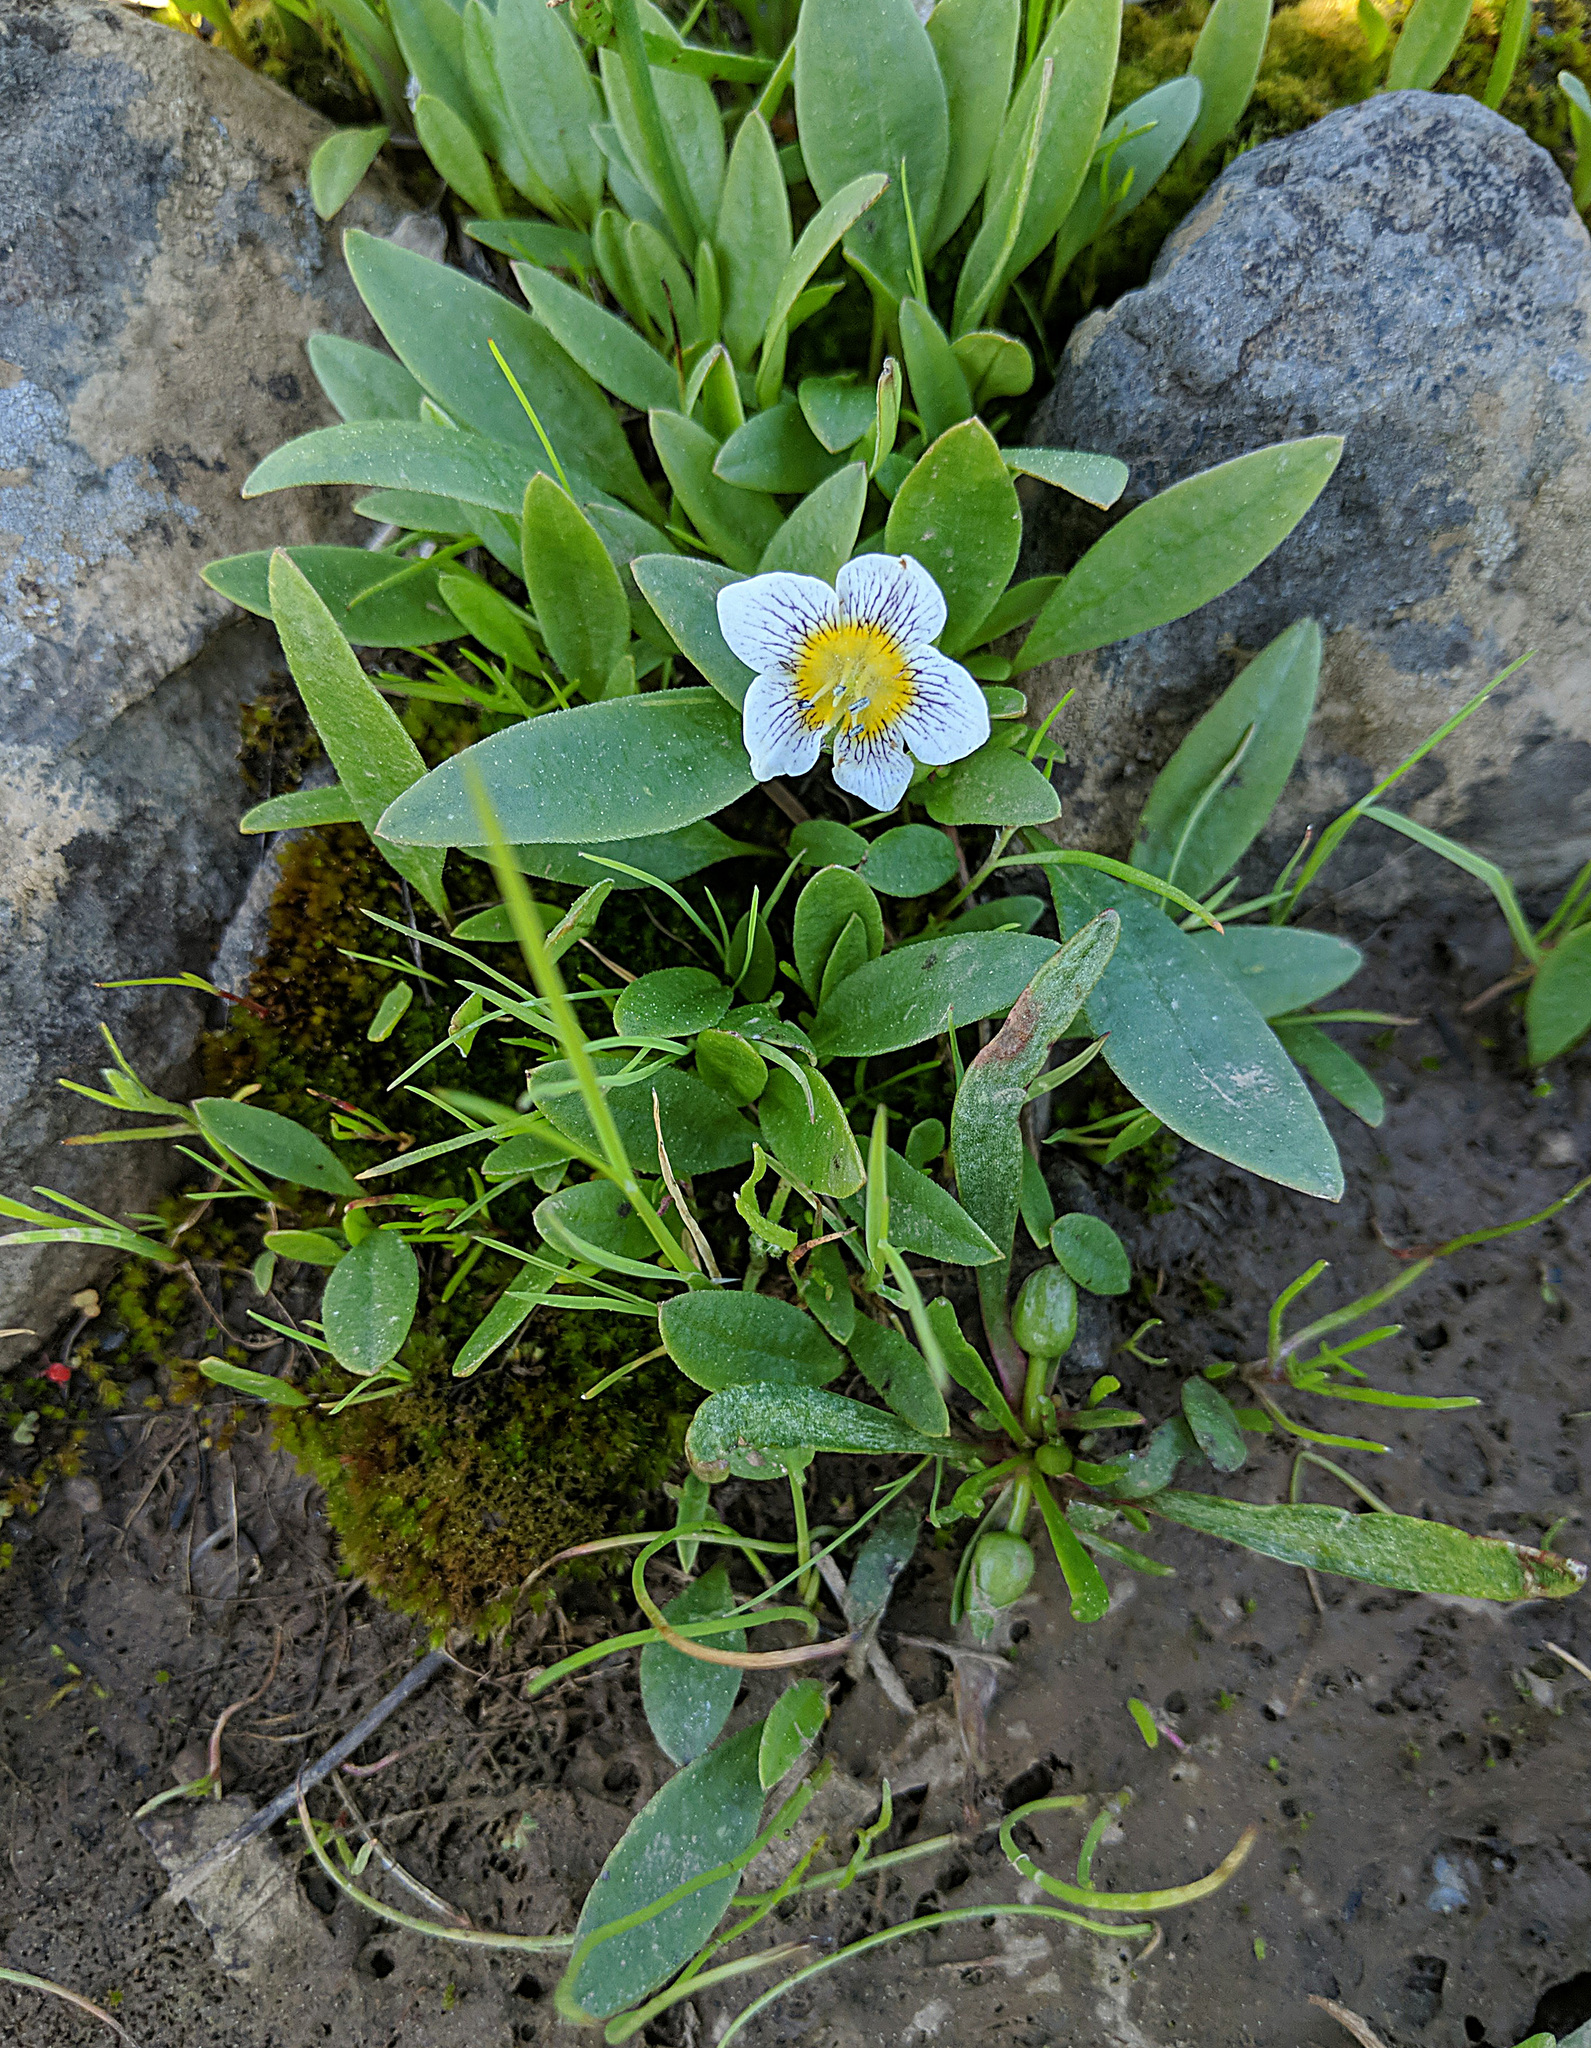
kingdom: Plantae
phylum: Tracheophyta
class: Magnoliopsida
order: Boraginales
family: Hydrophyllaceae
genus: Hesperochiron
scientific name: Hesperochiron pumilus
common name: Dwarf hesperochiron
